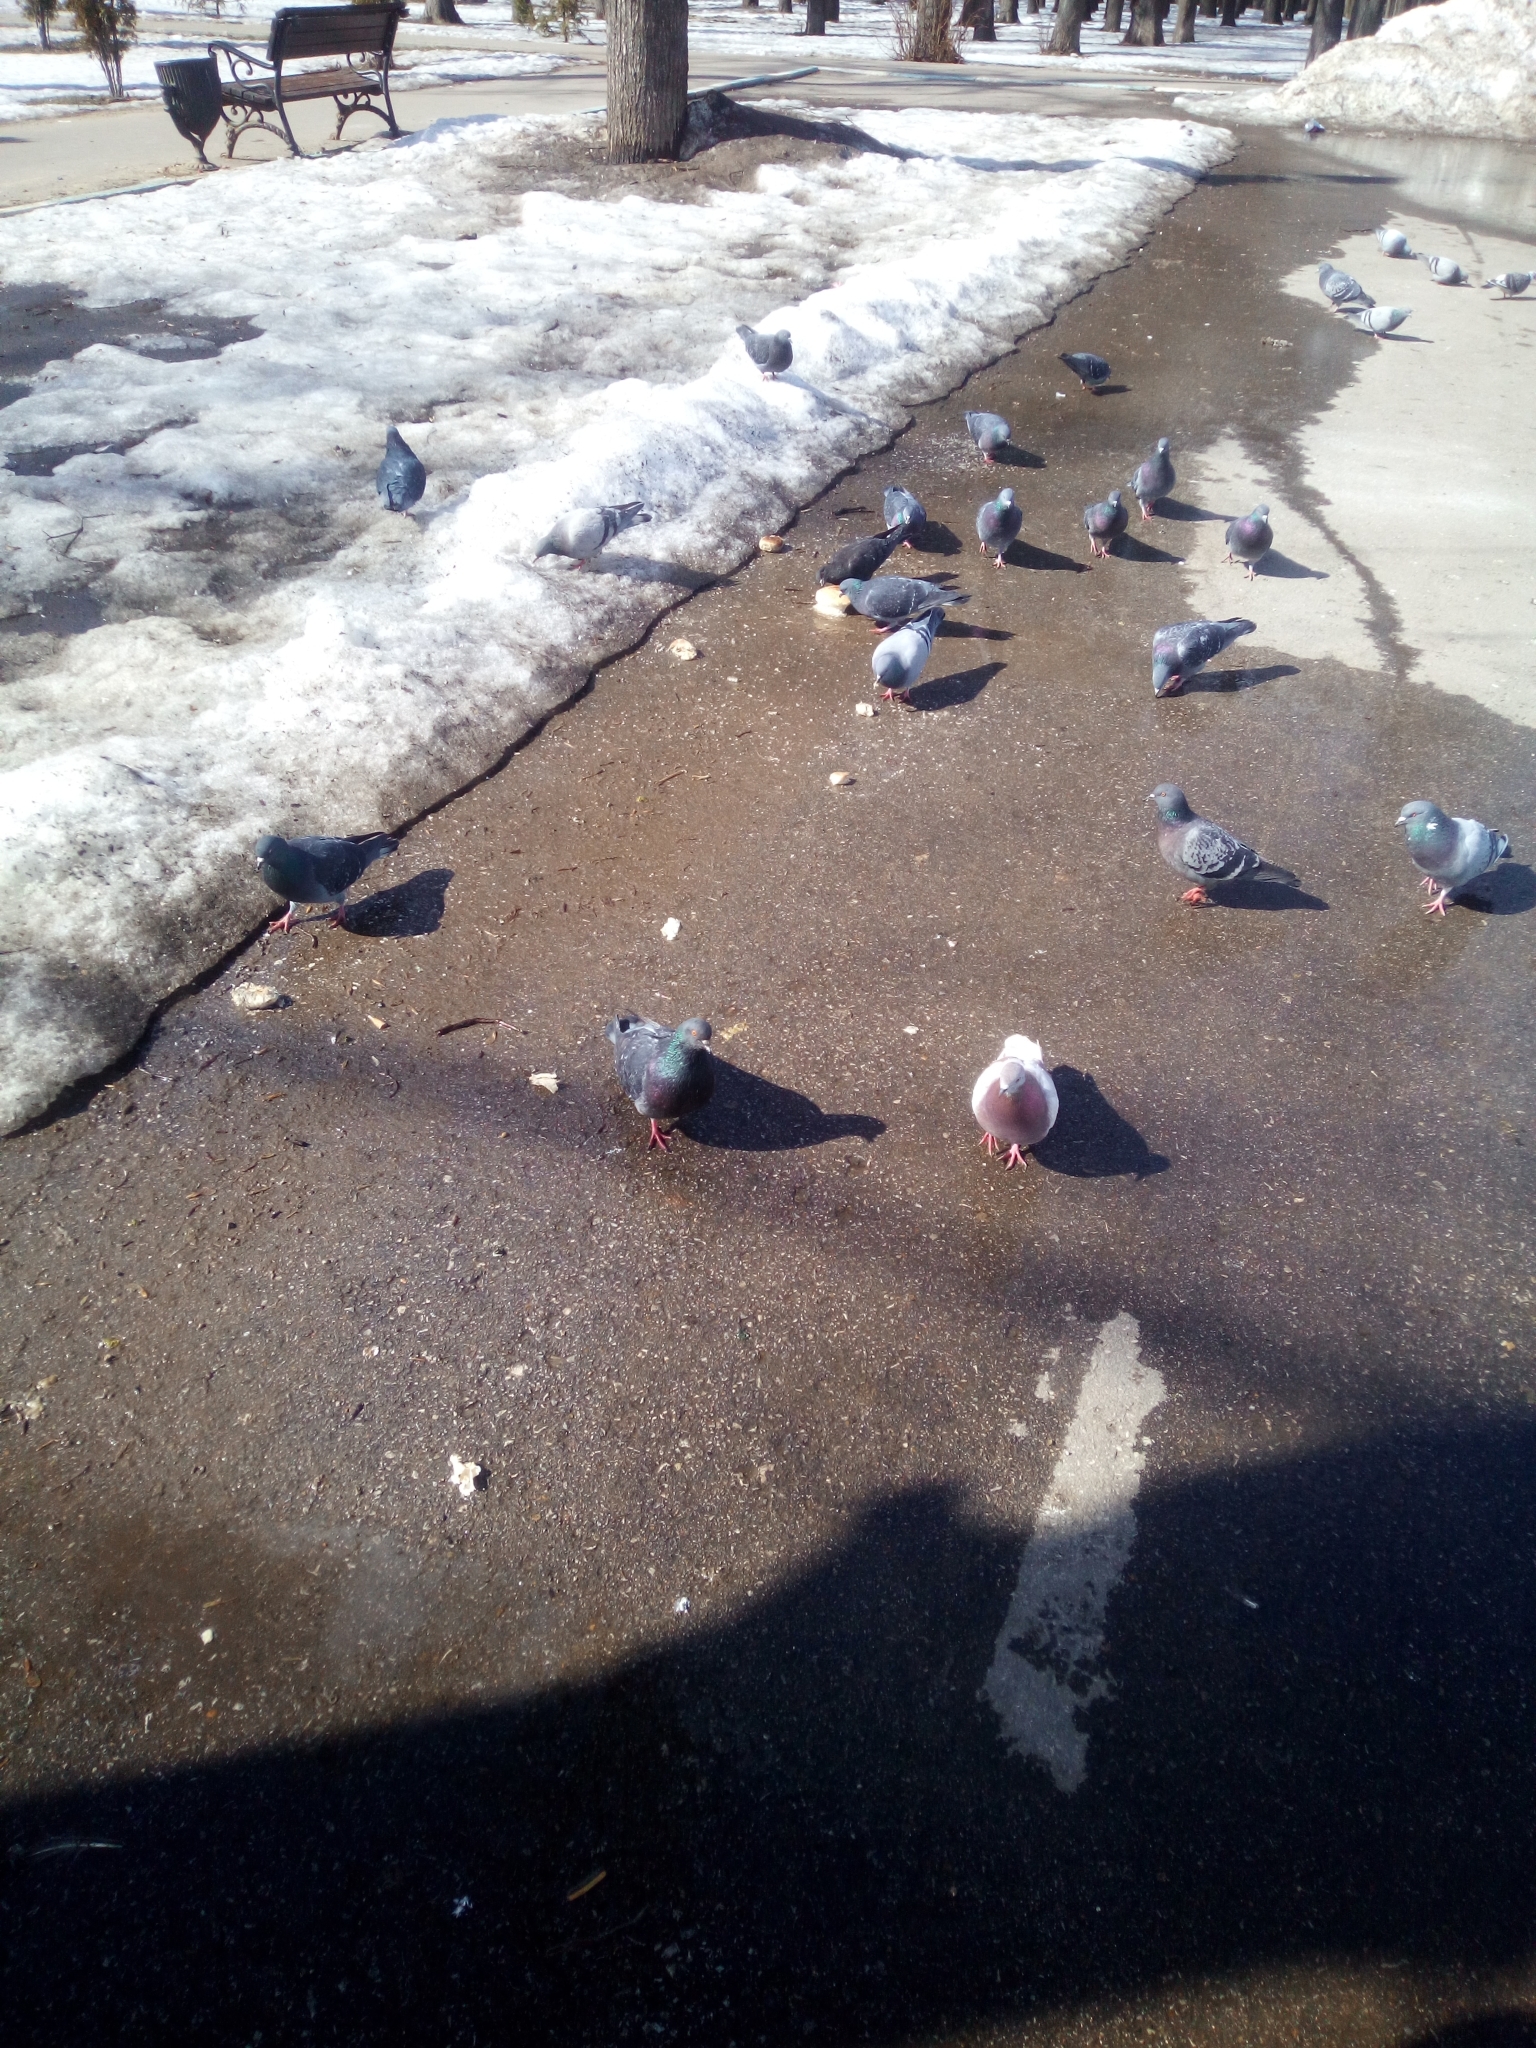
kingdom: Animalia
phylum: Chordata
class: Aves
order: Columbiformes
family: Columbidae
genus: Columba
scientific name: Columba livia
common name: Rock pigeon
